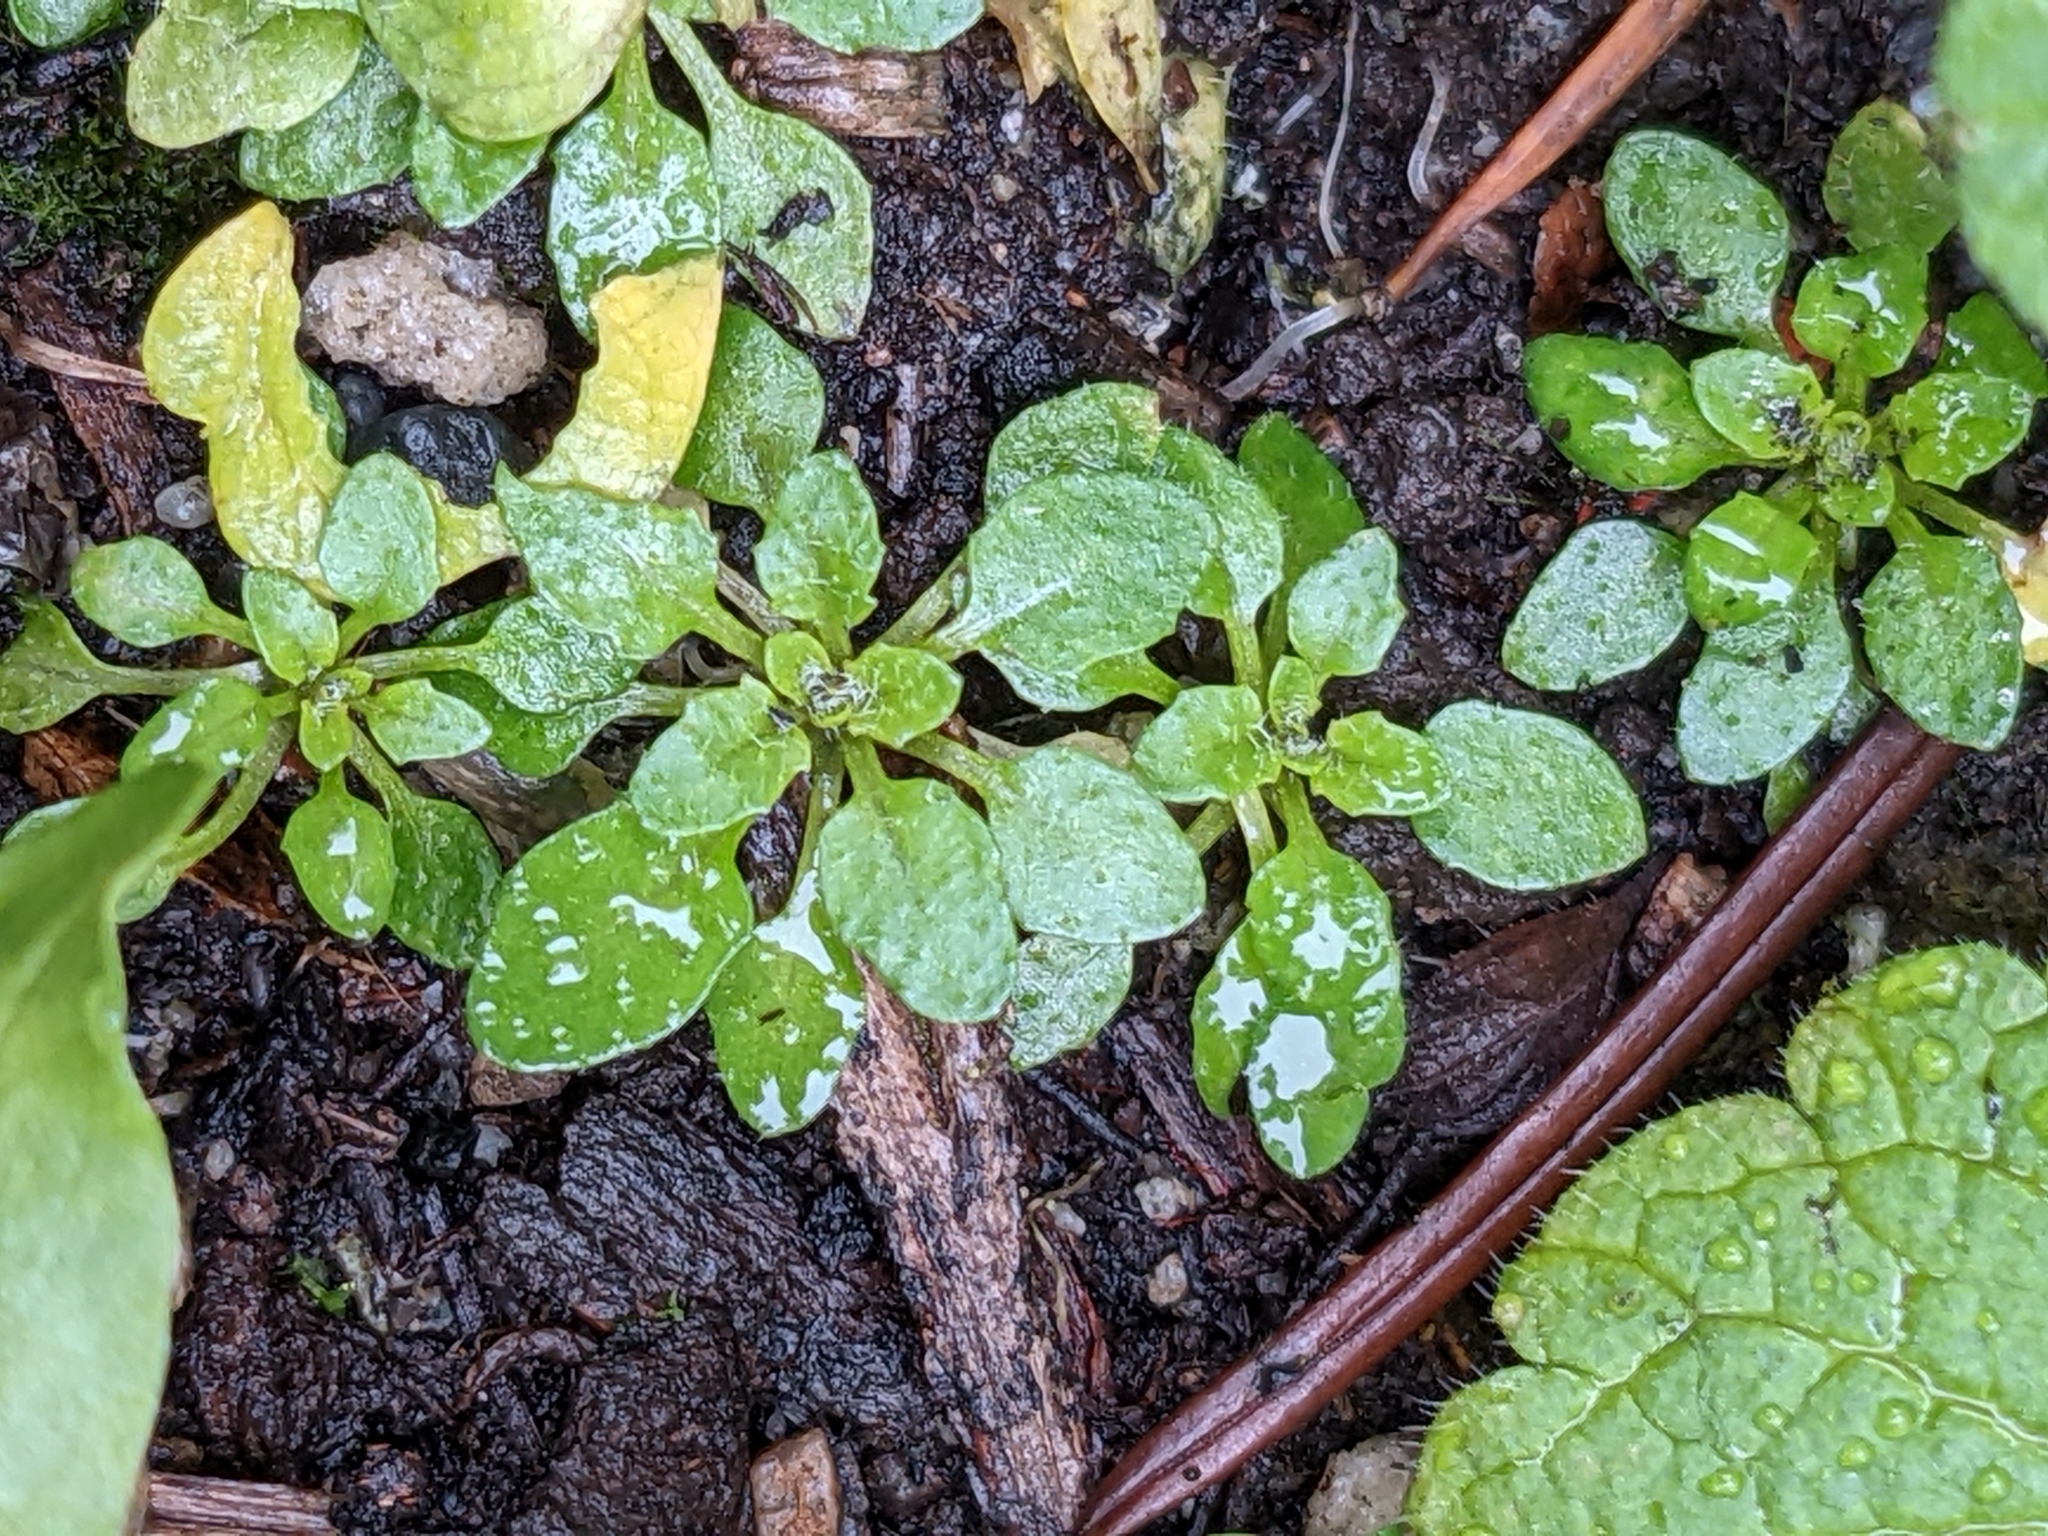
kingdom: Plantae
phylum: Tracheophyta
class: Magnoliopsida
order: Brassicales
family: Brassicaceae
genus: Arabidopsis
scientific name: Arabidopsis thaliana
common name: Thale cress
